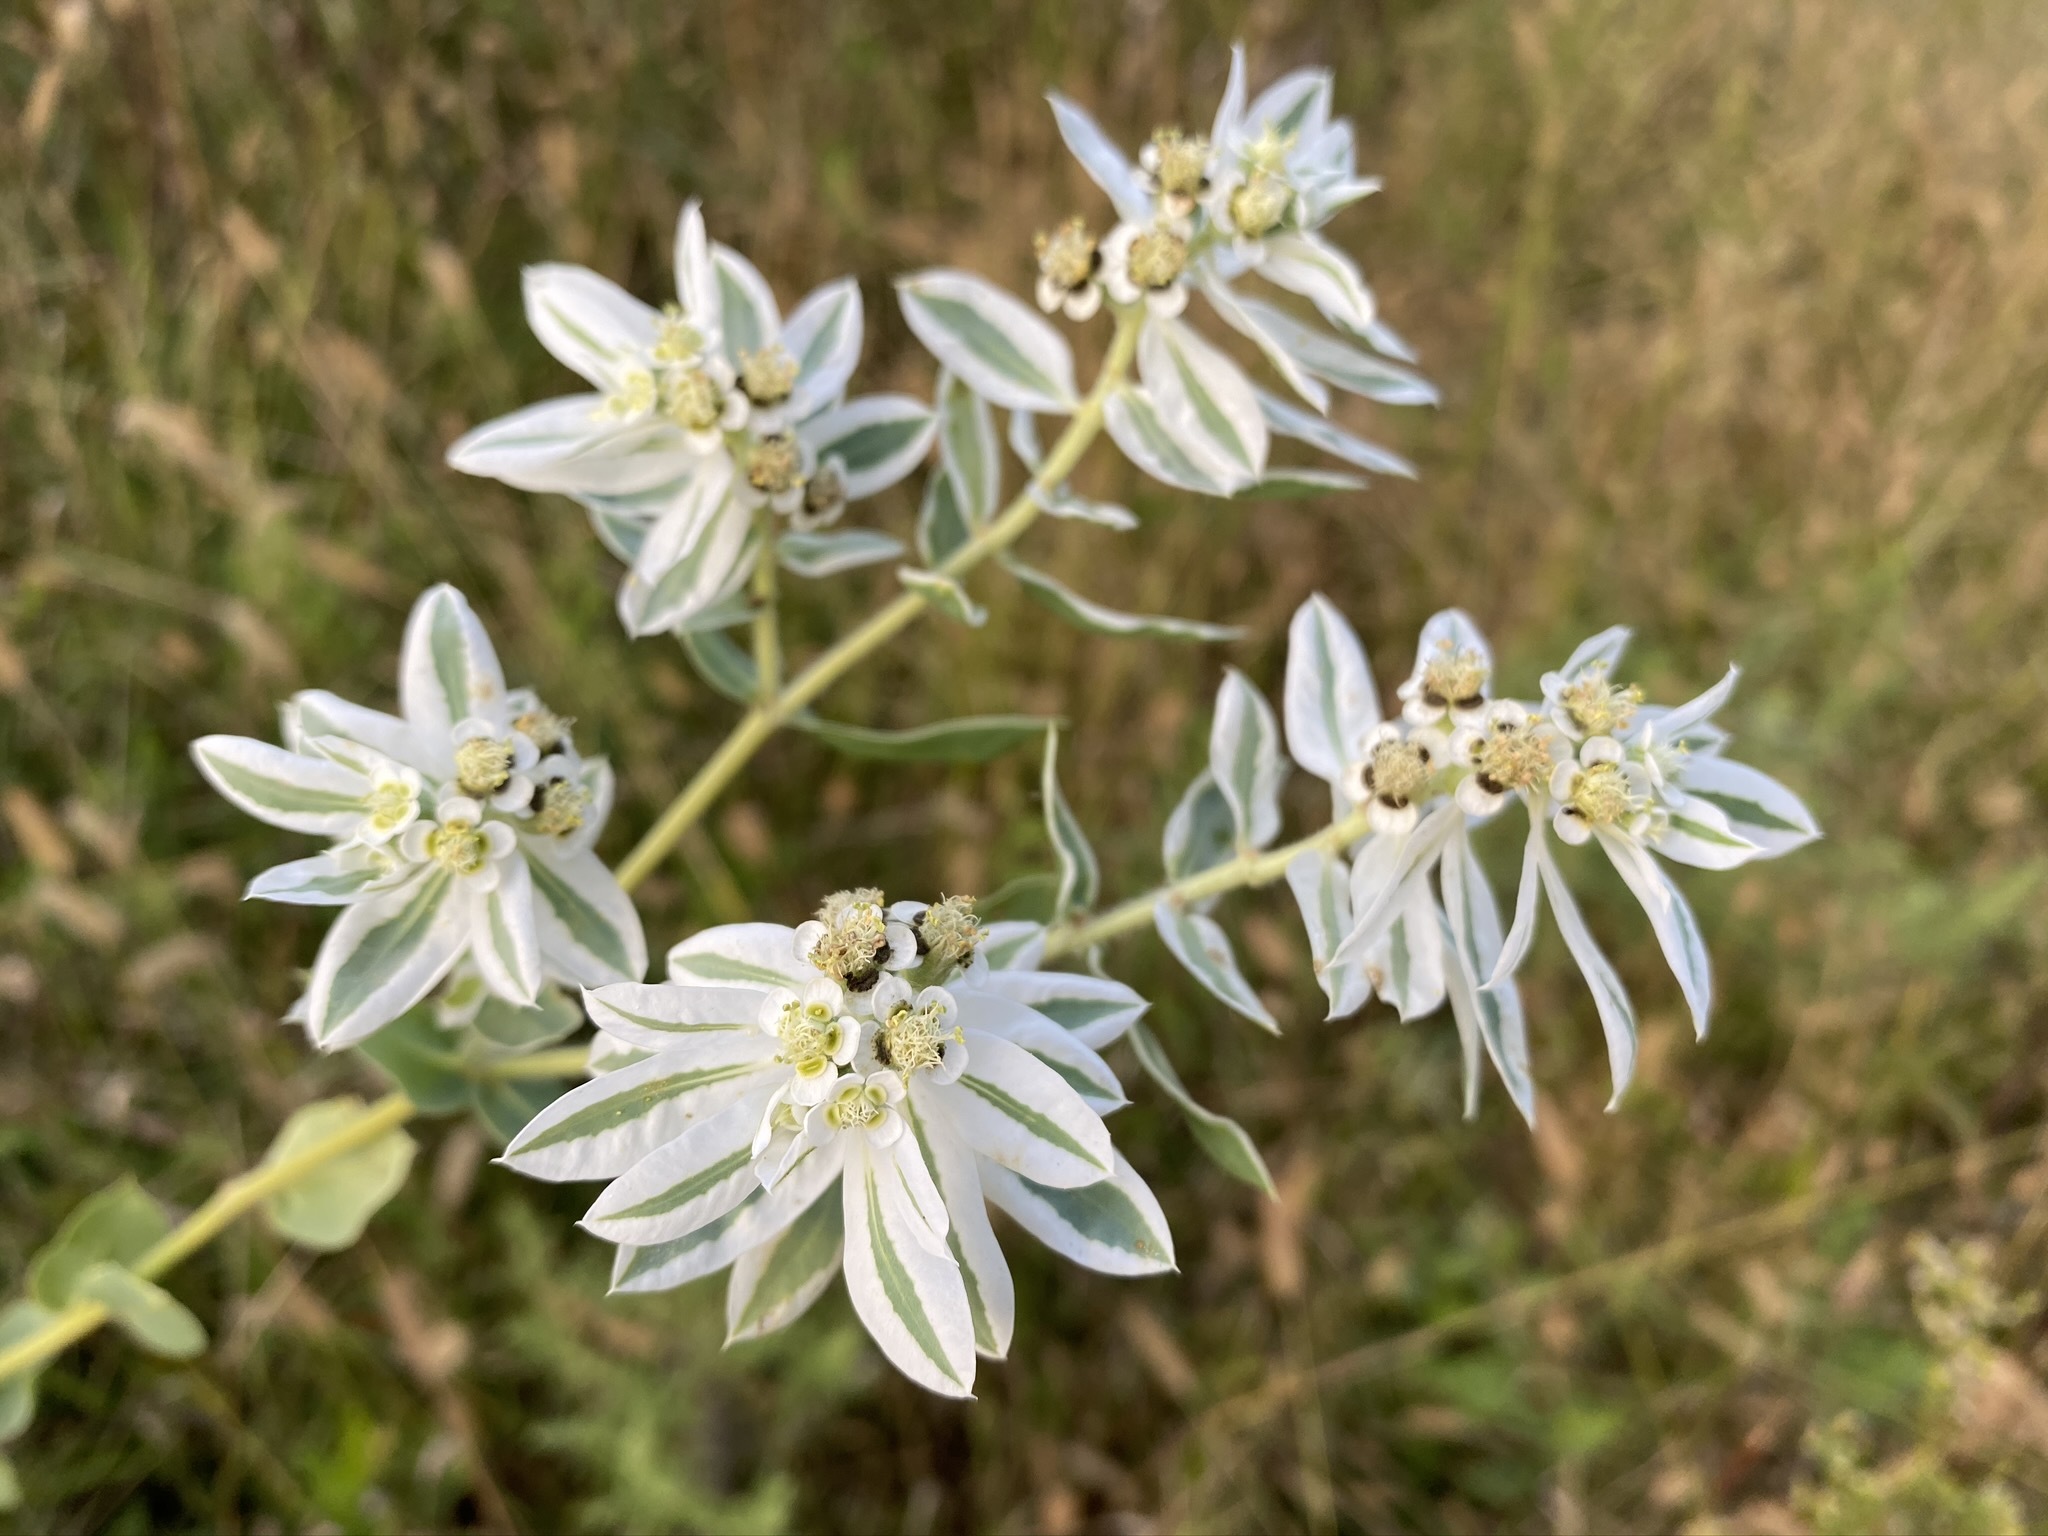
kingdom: Plantae
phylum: Tracheophyta
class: Magnoliopsida
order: Malpighiales
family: Euphorbiaceae
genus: Euphorbia
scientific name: Euphorbia marginata
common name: Ghostweed
